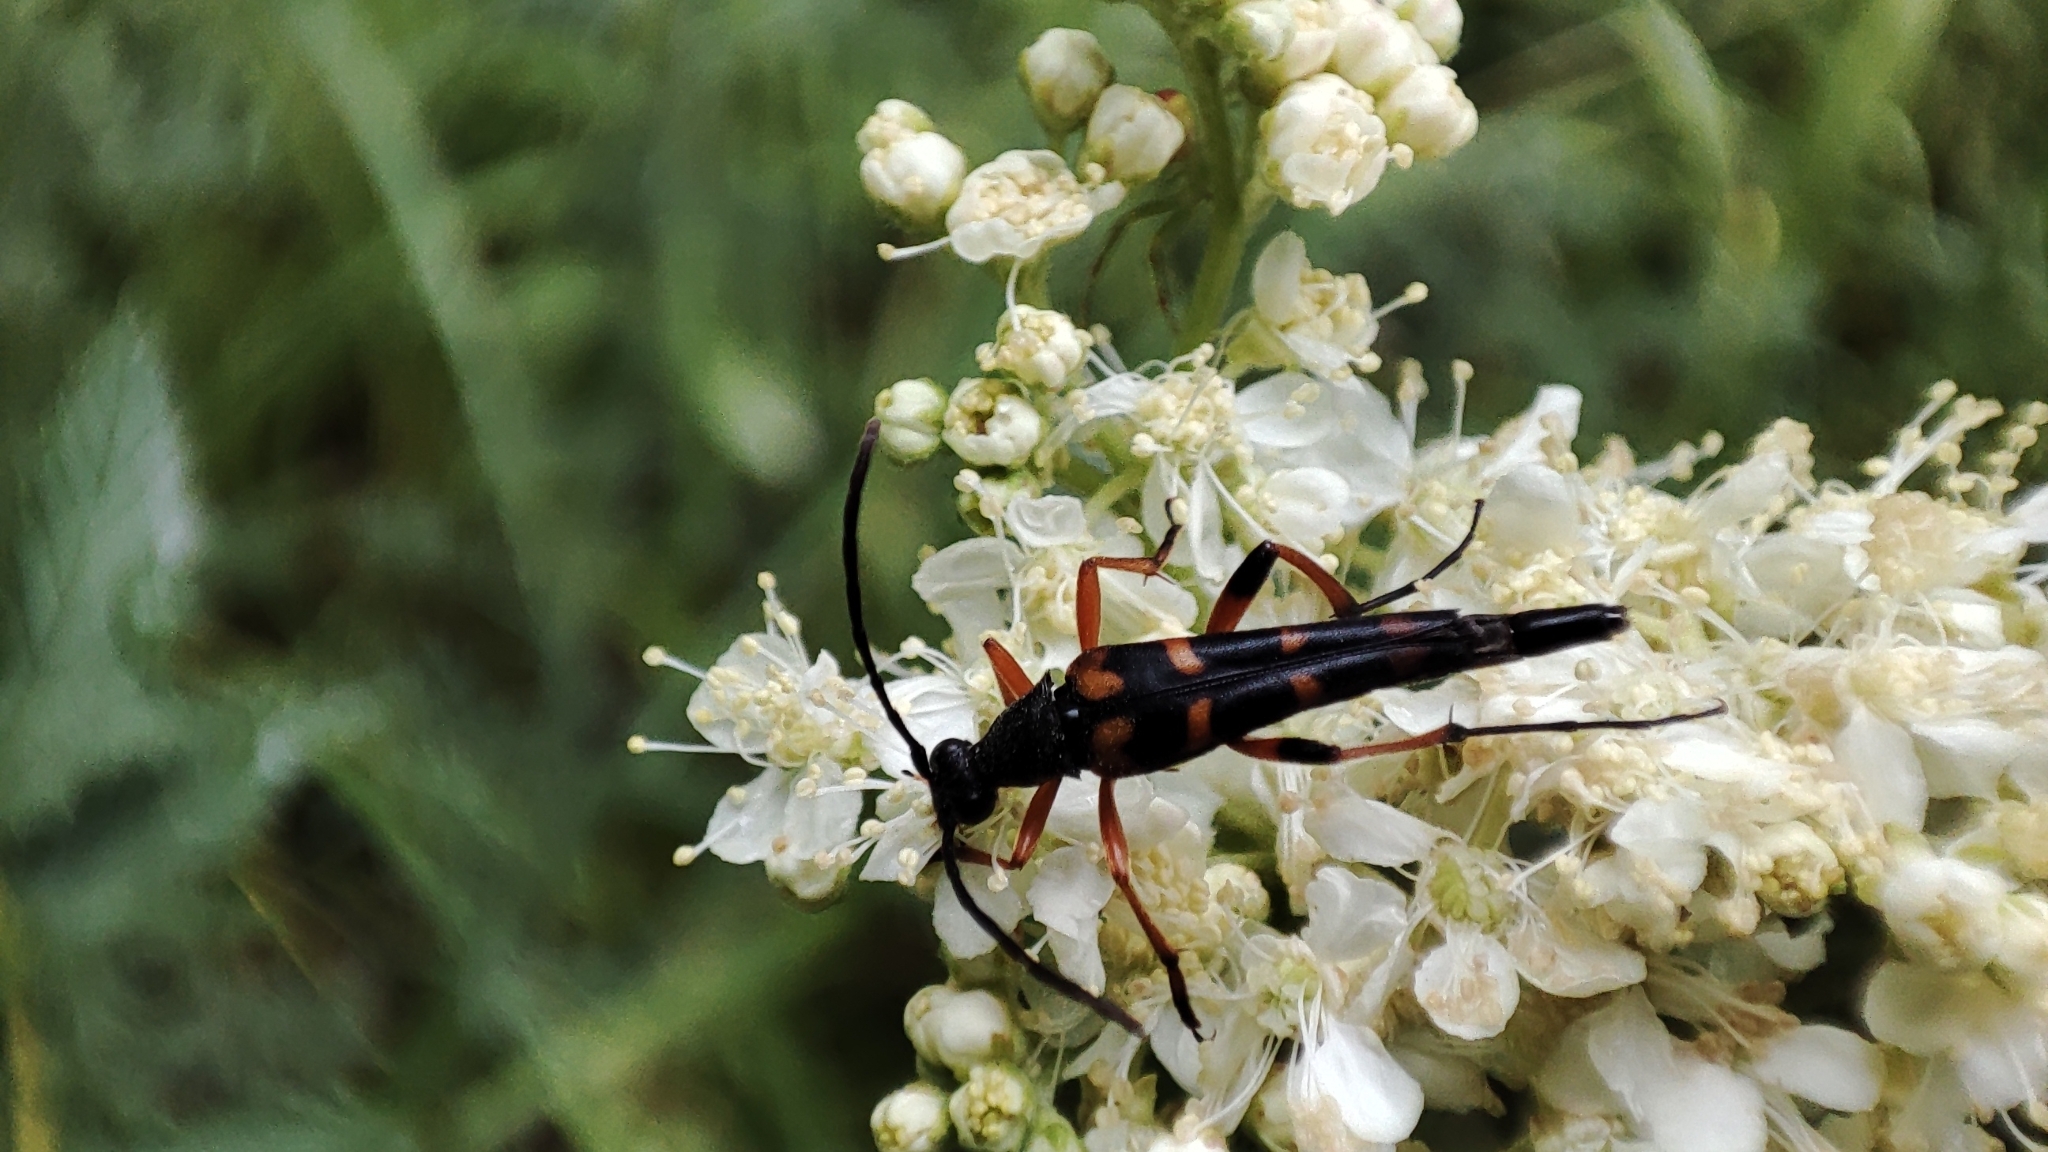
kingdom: Animalia
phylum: Arthropoda
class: Insecta
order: Coleoptera
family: Cerambycidae
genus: Strangalia
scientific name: Strangalia attenuata
